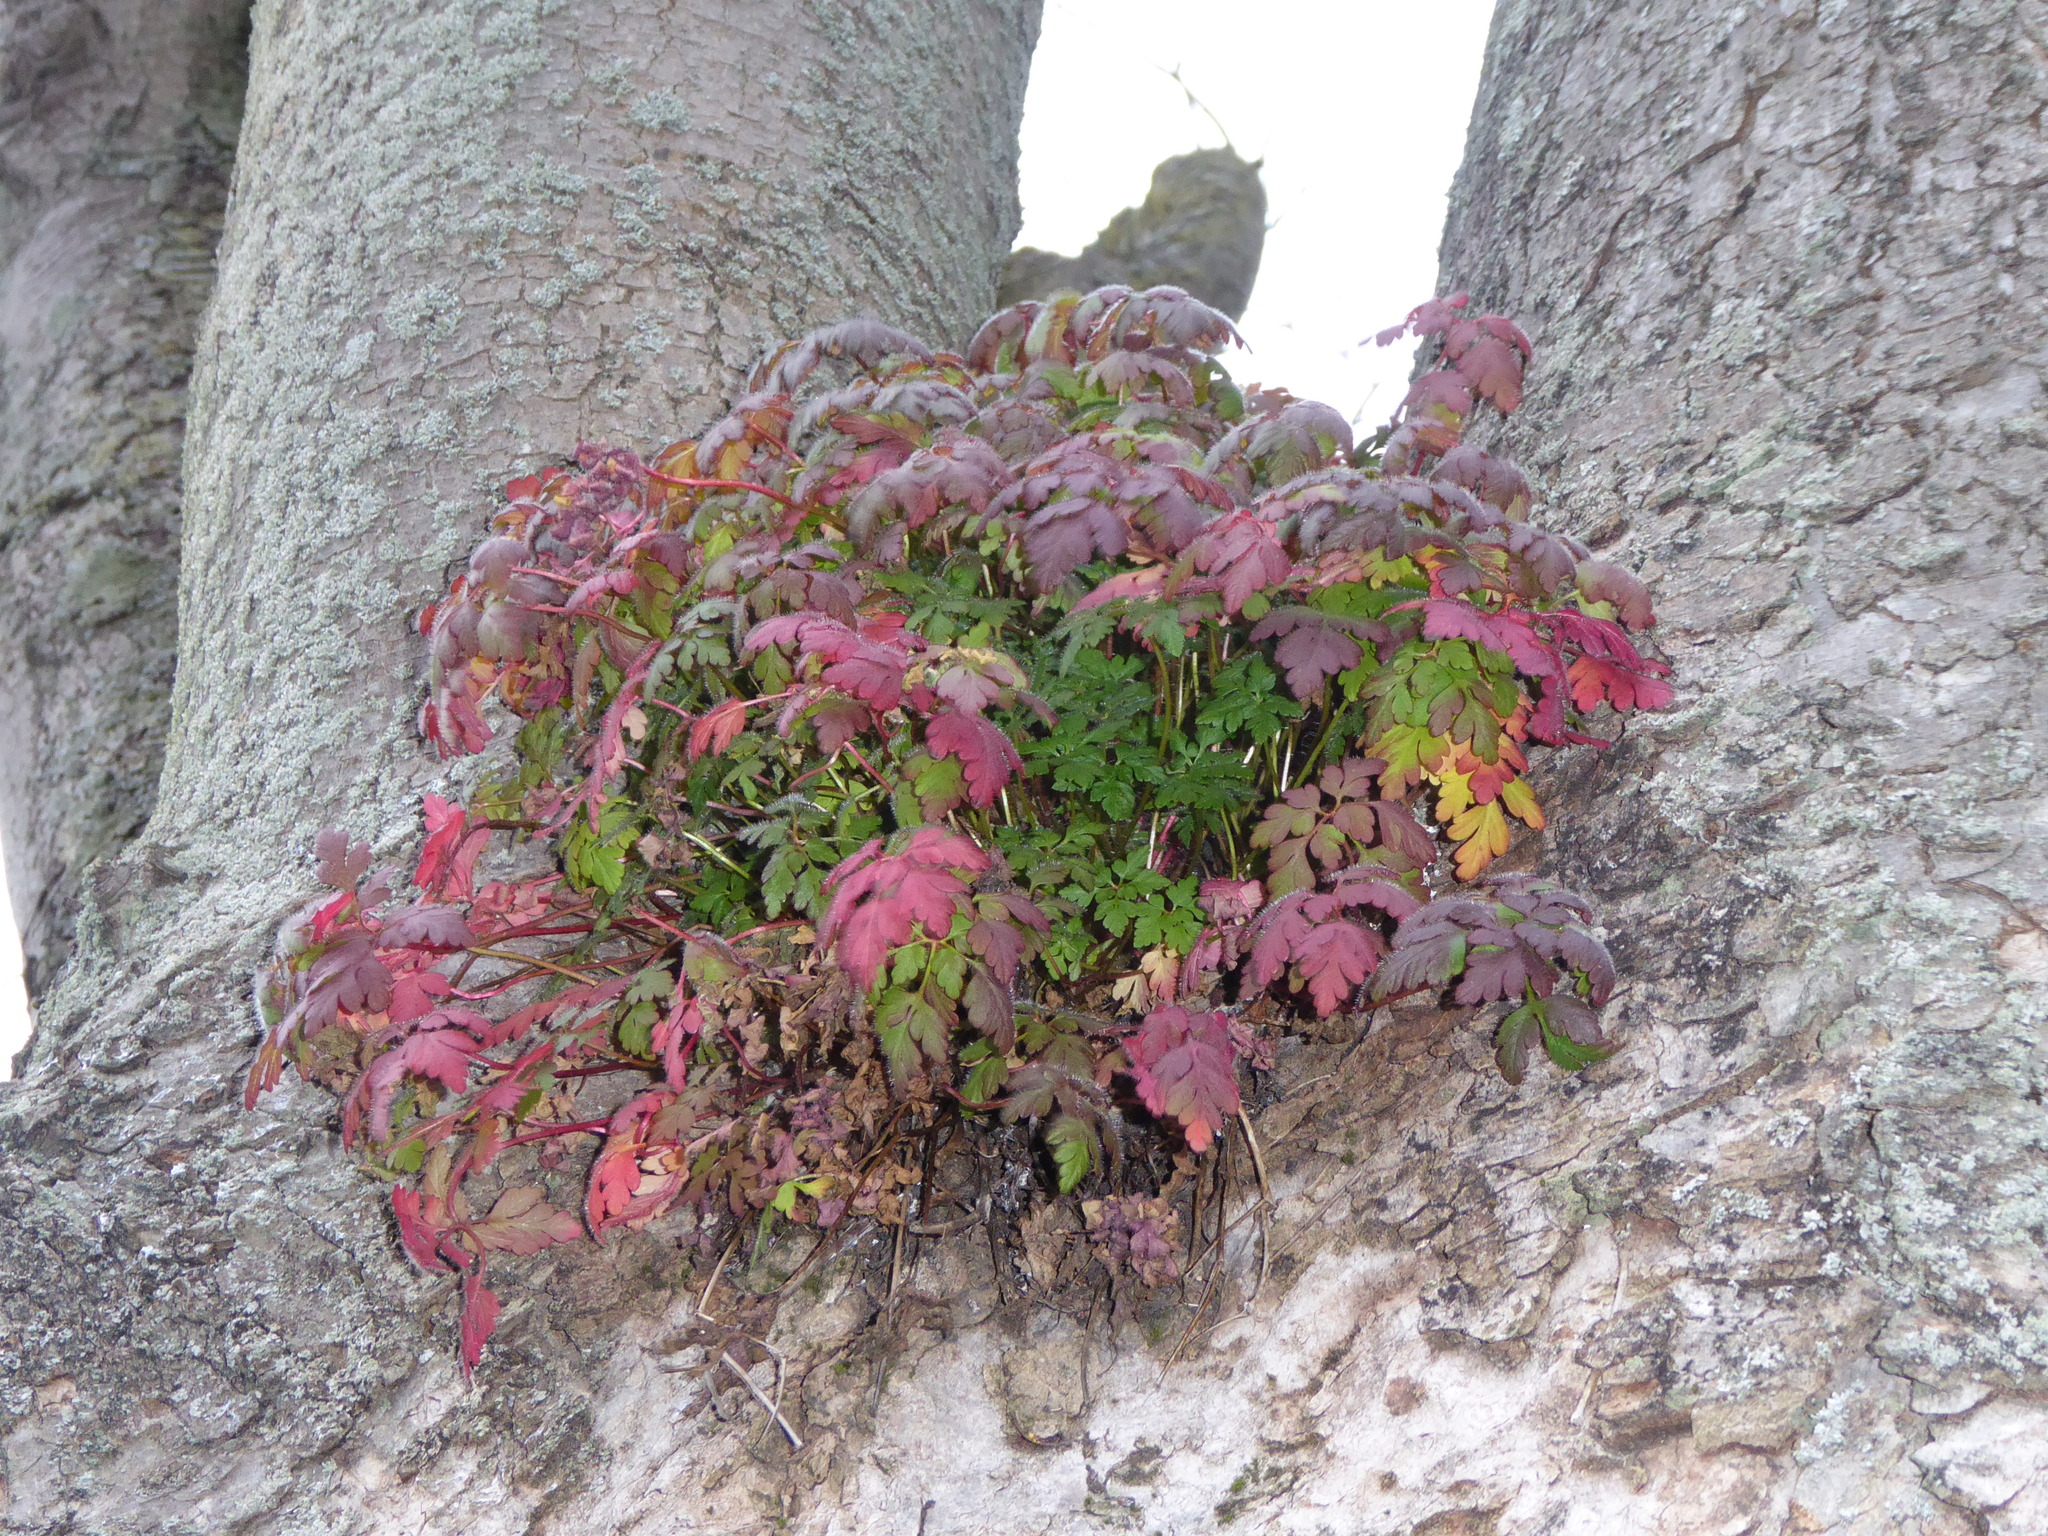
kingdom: Plantae
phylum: Tracheophyta
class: Magnoliopsida
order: Geraniales
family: Geraniaceae
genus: Geranium
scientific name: Geranium robertianum
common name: Herb-robert
